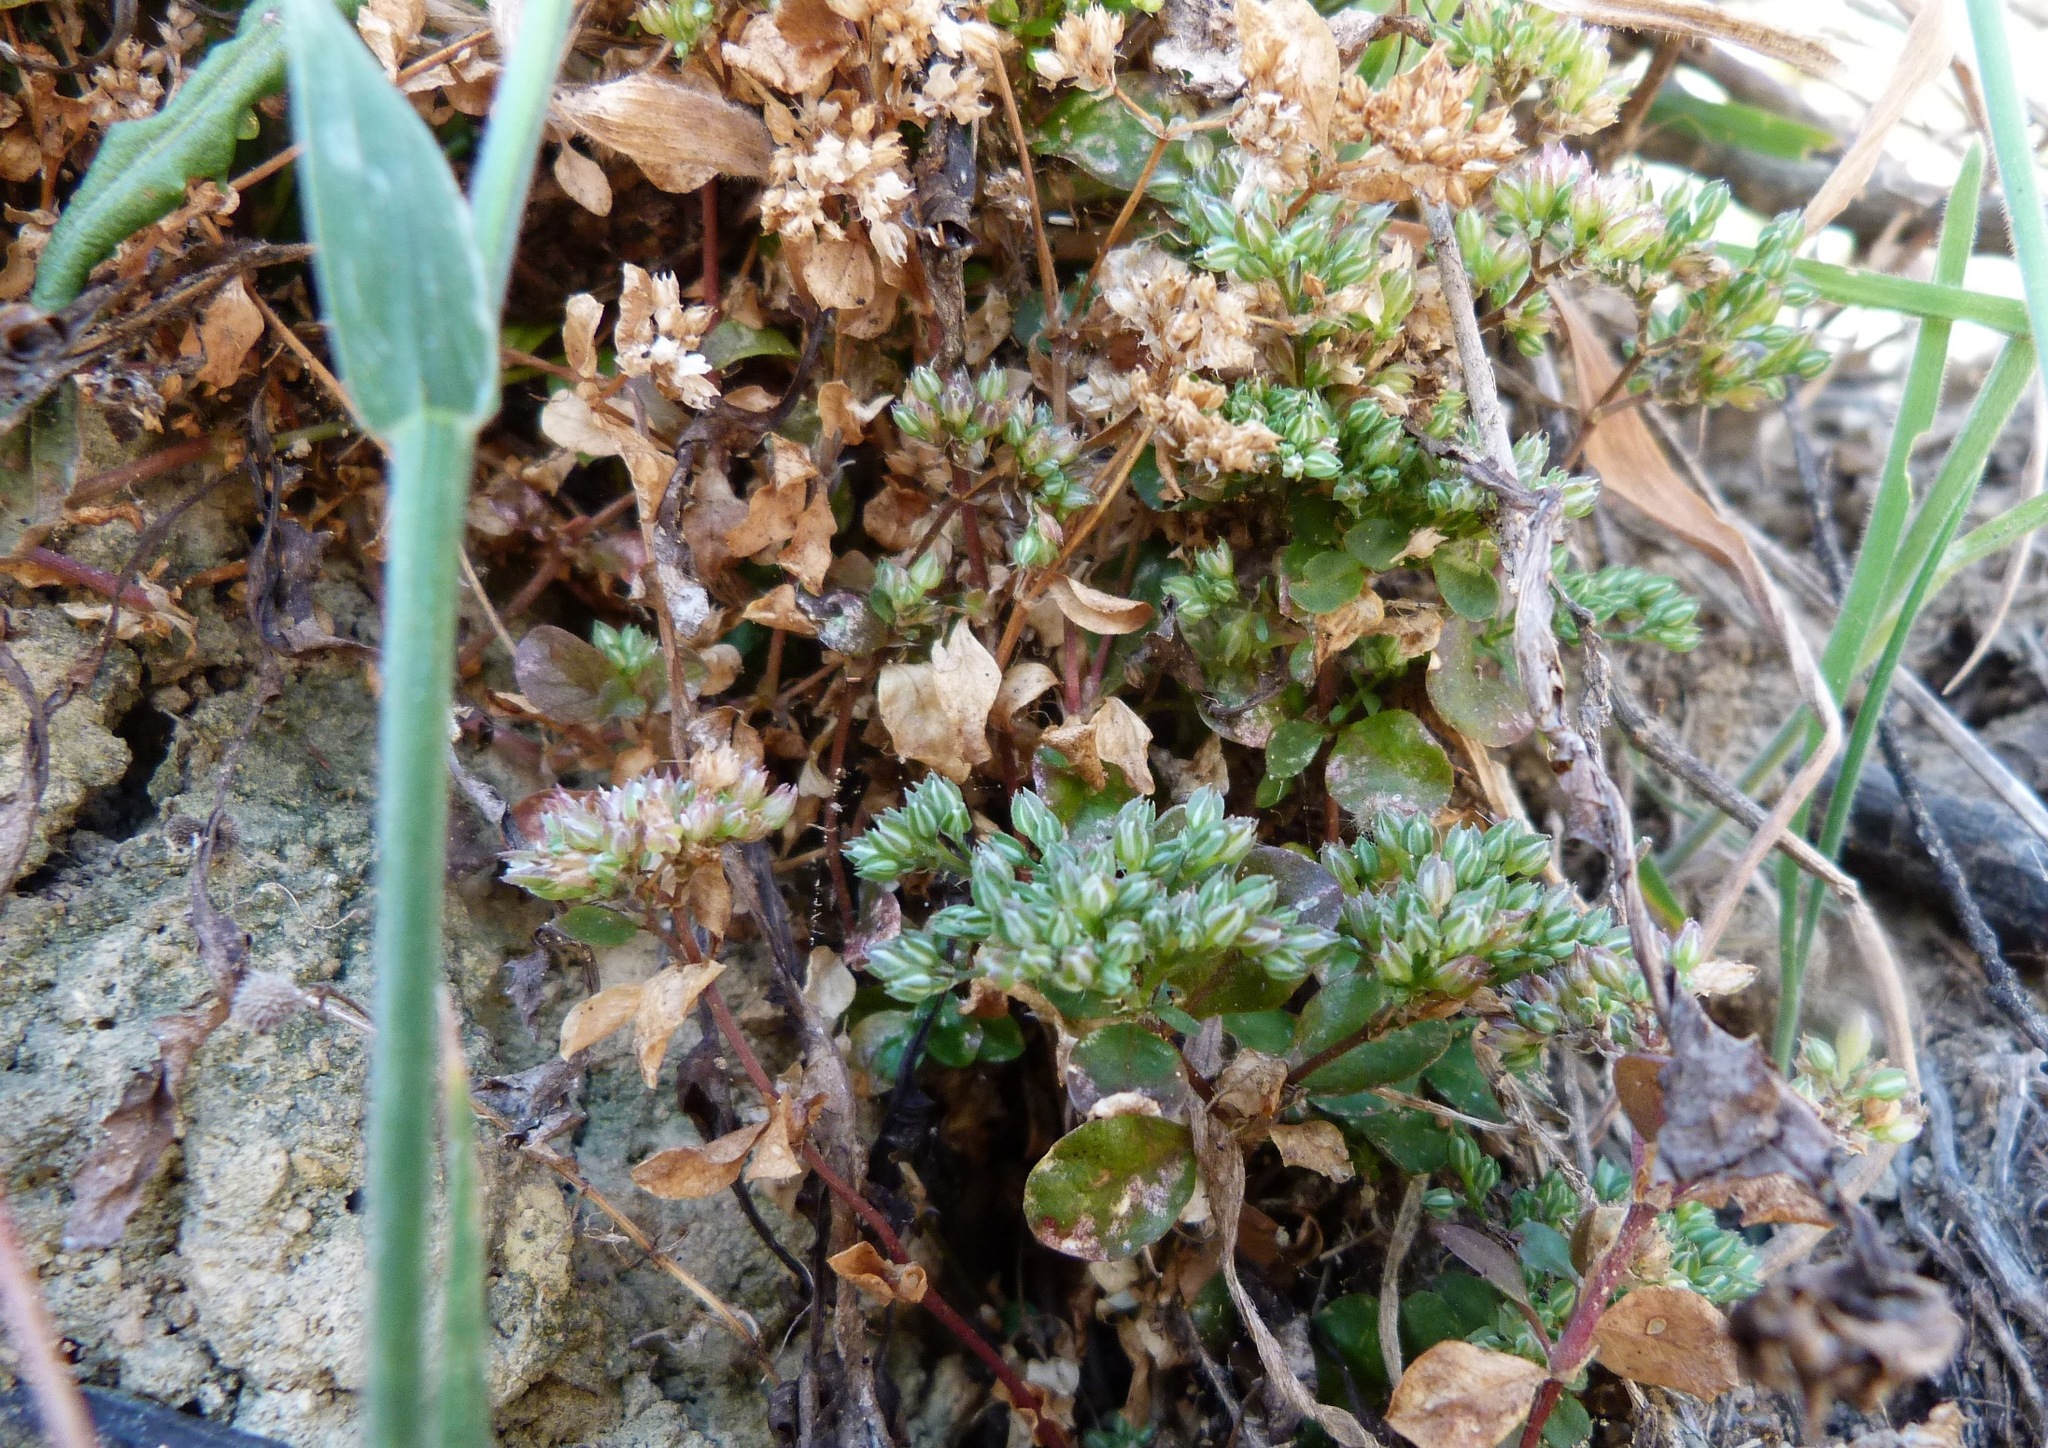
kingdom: Plantae
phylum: Tracheophyta
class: Magnoliopsida
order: Caryophyllales
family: Caryophyllaceae
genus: Polycarpon
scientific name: Polycarpon tetraphyllum
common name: Four-leaved all-seed
